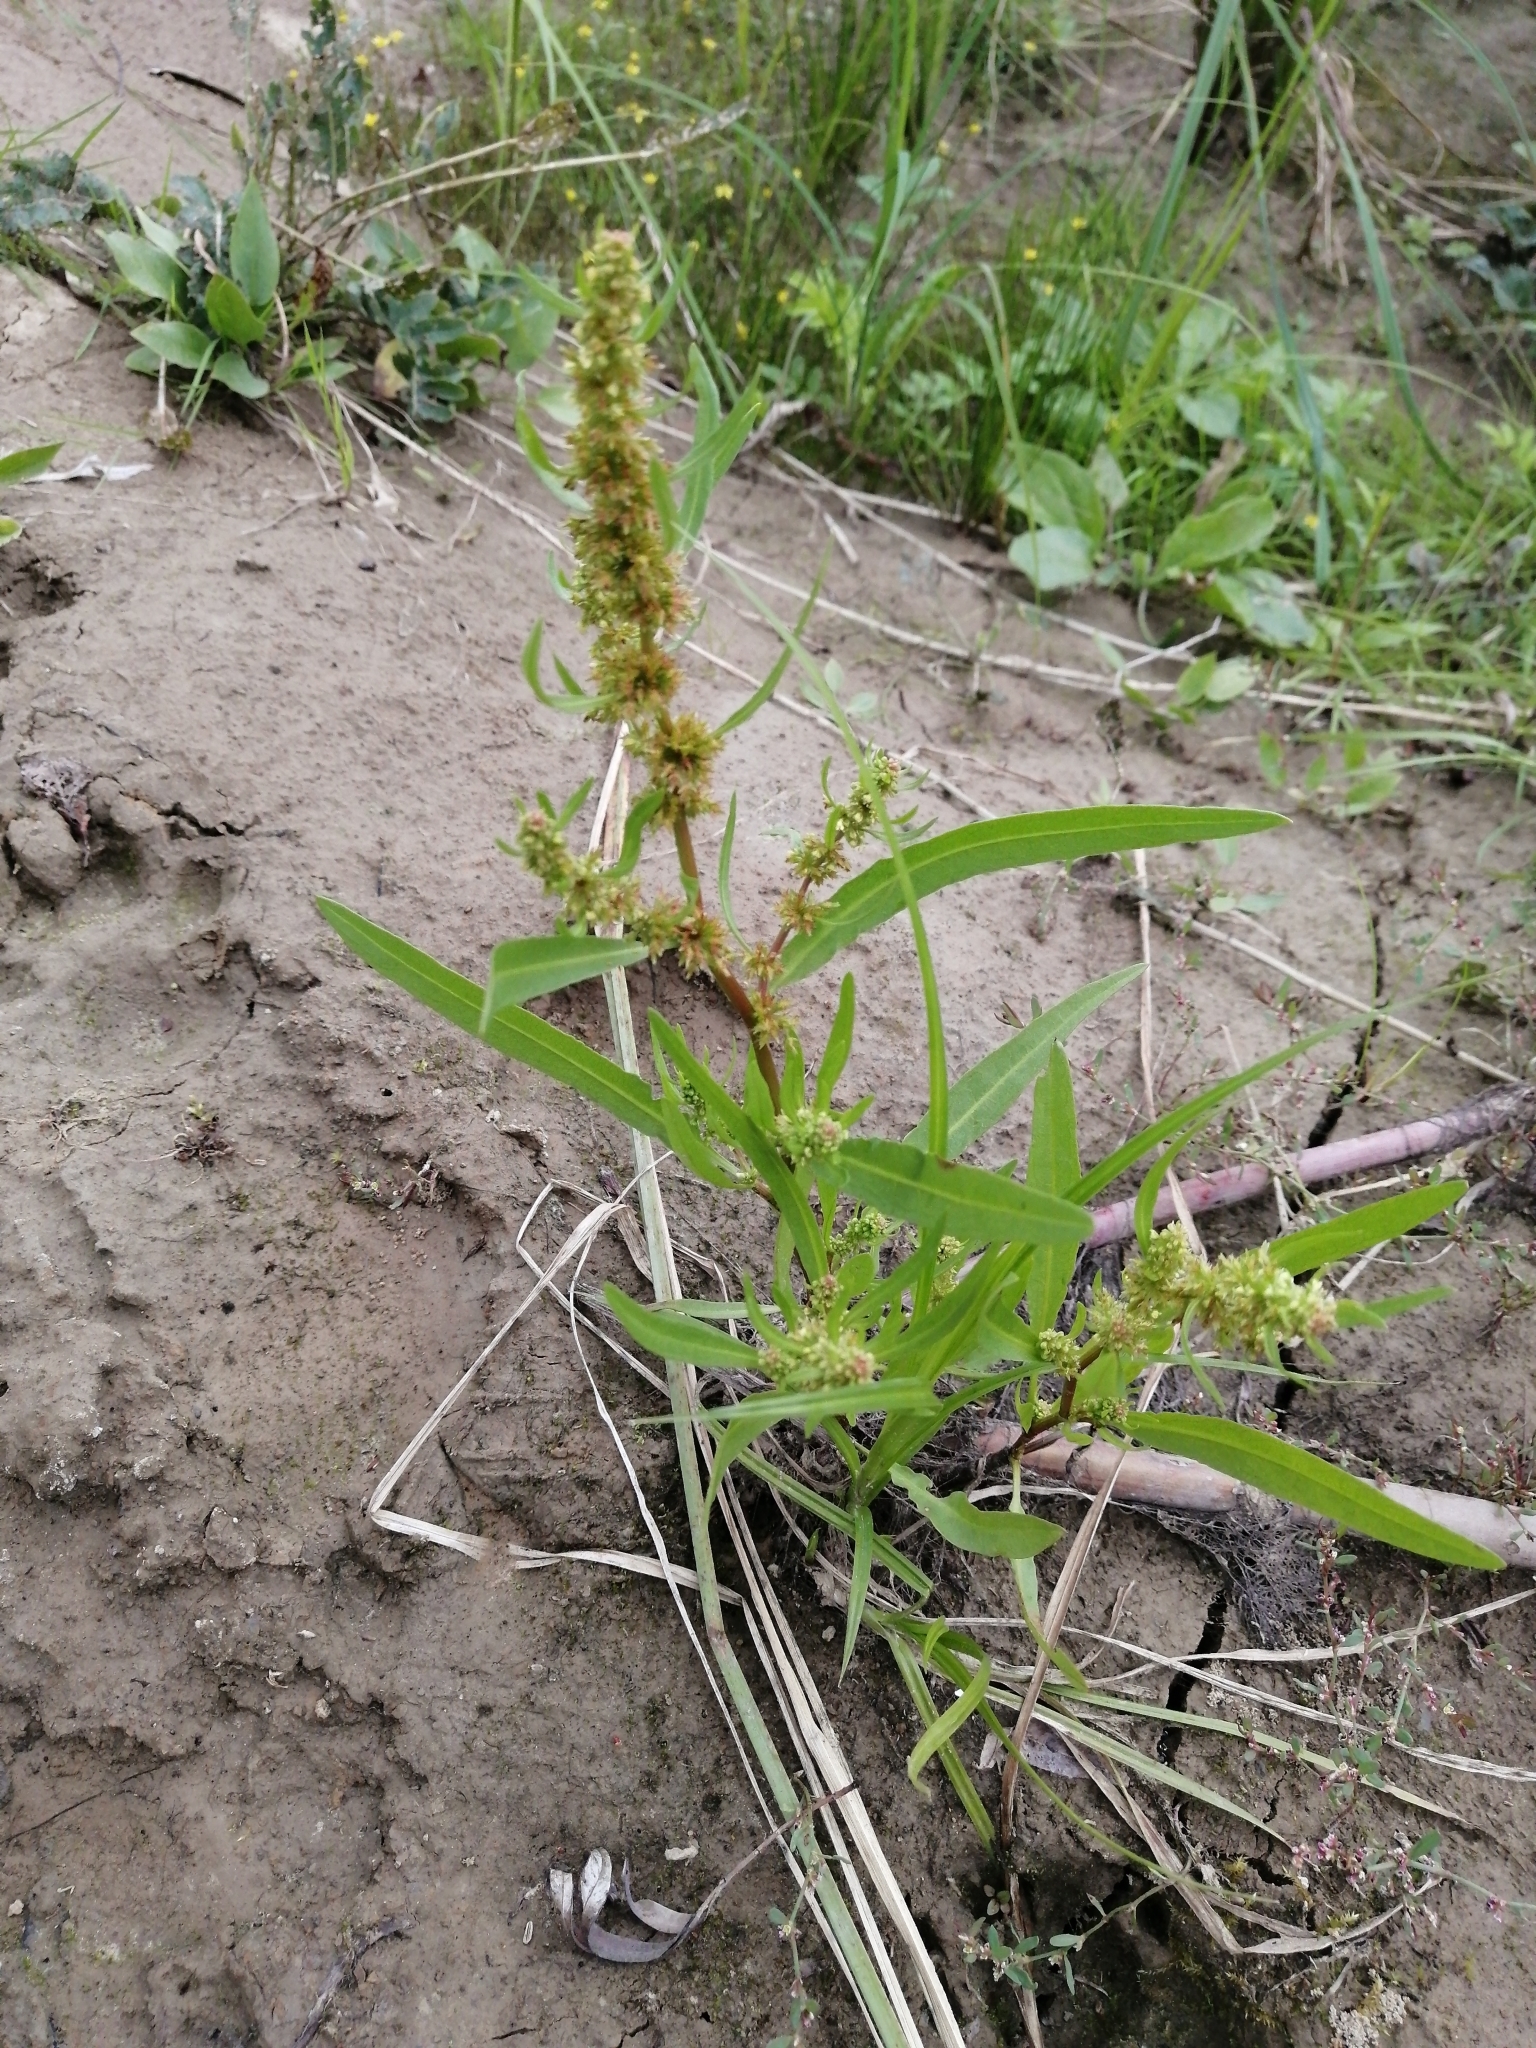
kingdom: Plantae
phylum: Tracheophyta
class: Magnoliopsida
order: Caryophyllales
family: Polygonaceae
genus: Rumex
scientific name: Rumex maritimus
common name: Golden dock
